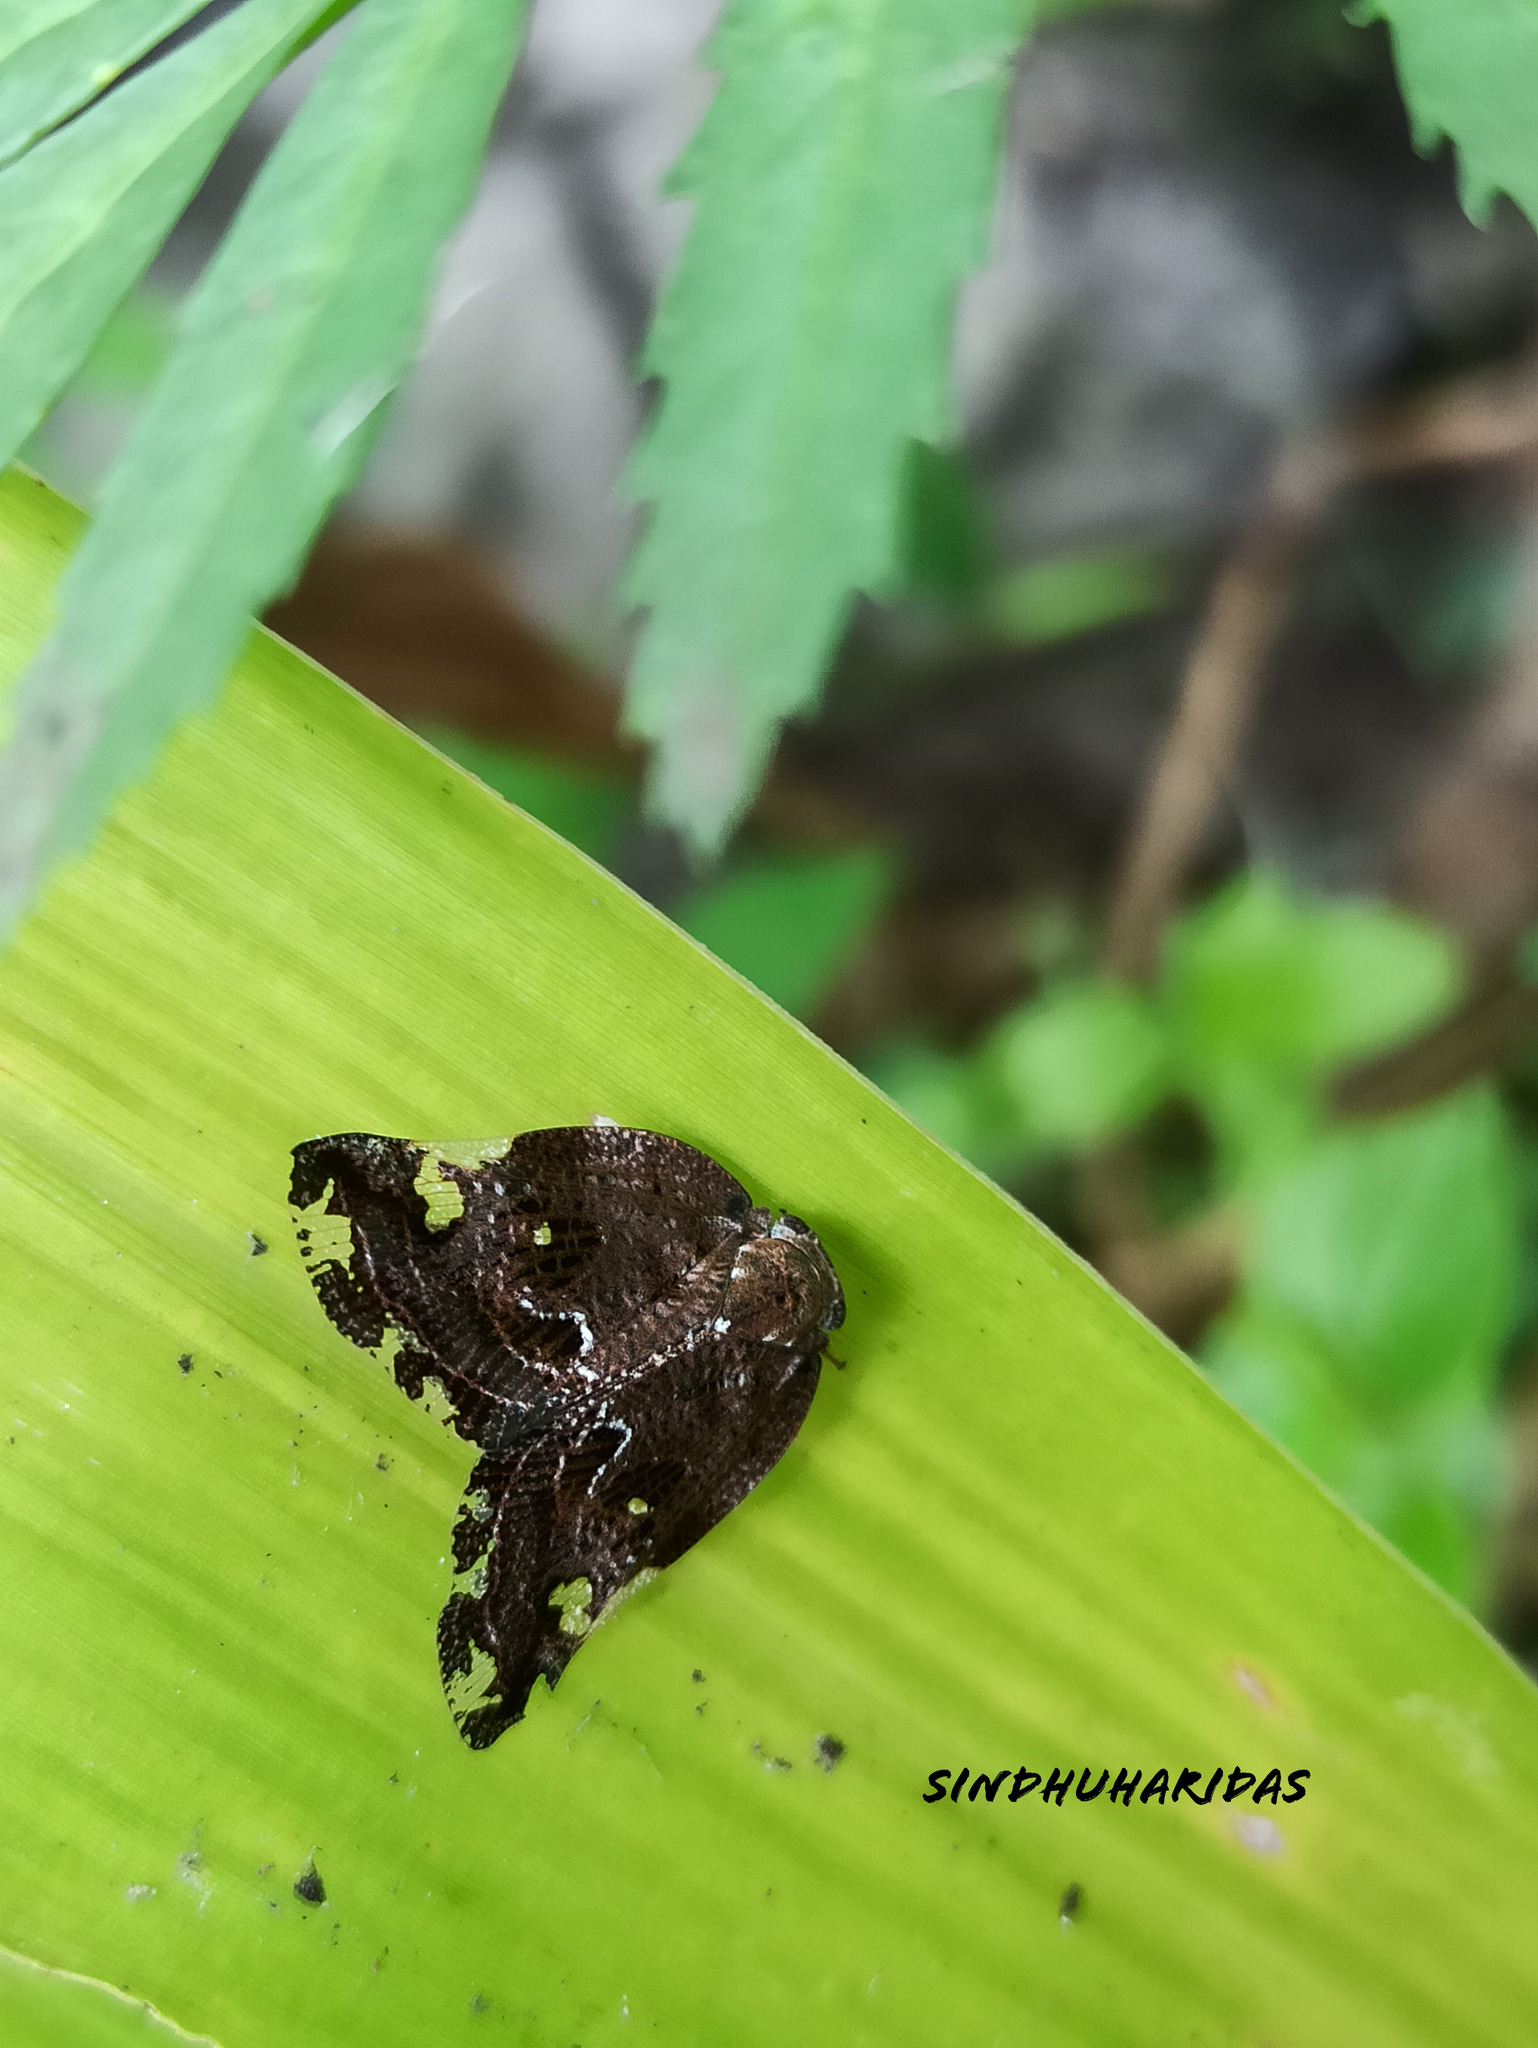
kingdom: Animalia
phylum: Arthropoda
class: Insecta
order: Hemiptera
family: Ricaniidae
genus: Ricania
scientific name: Ricania speculum
